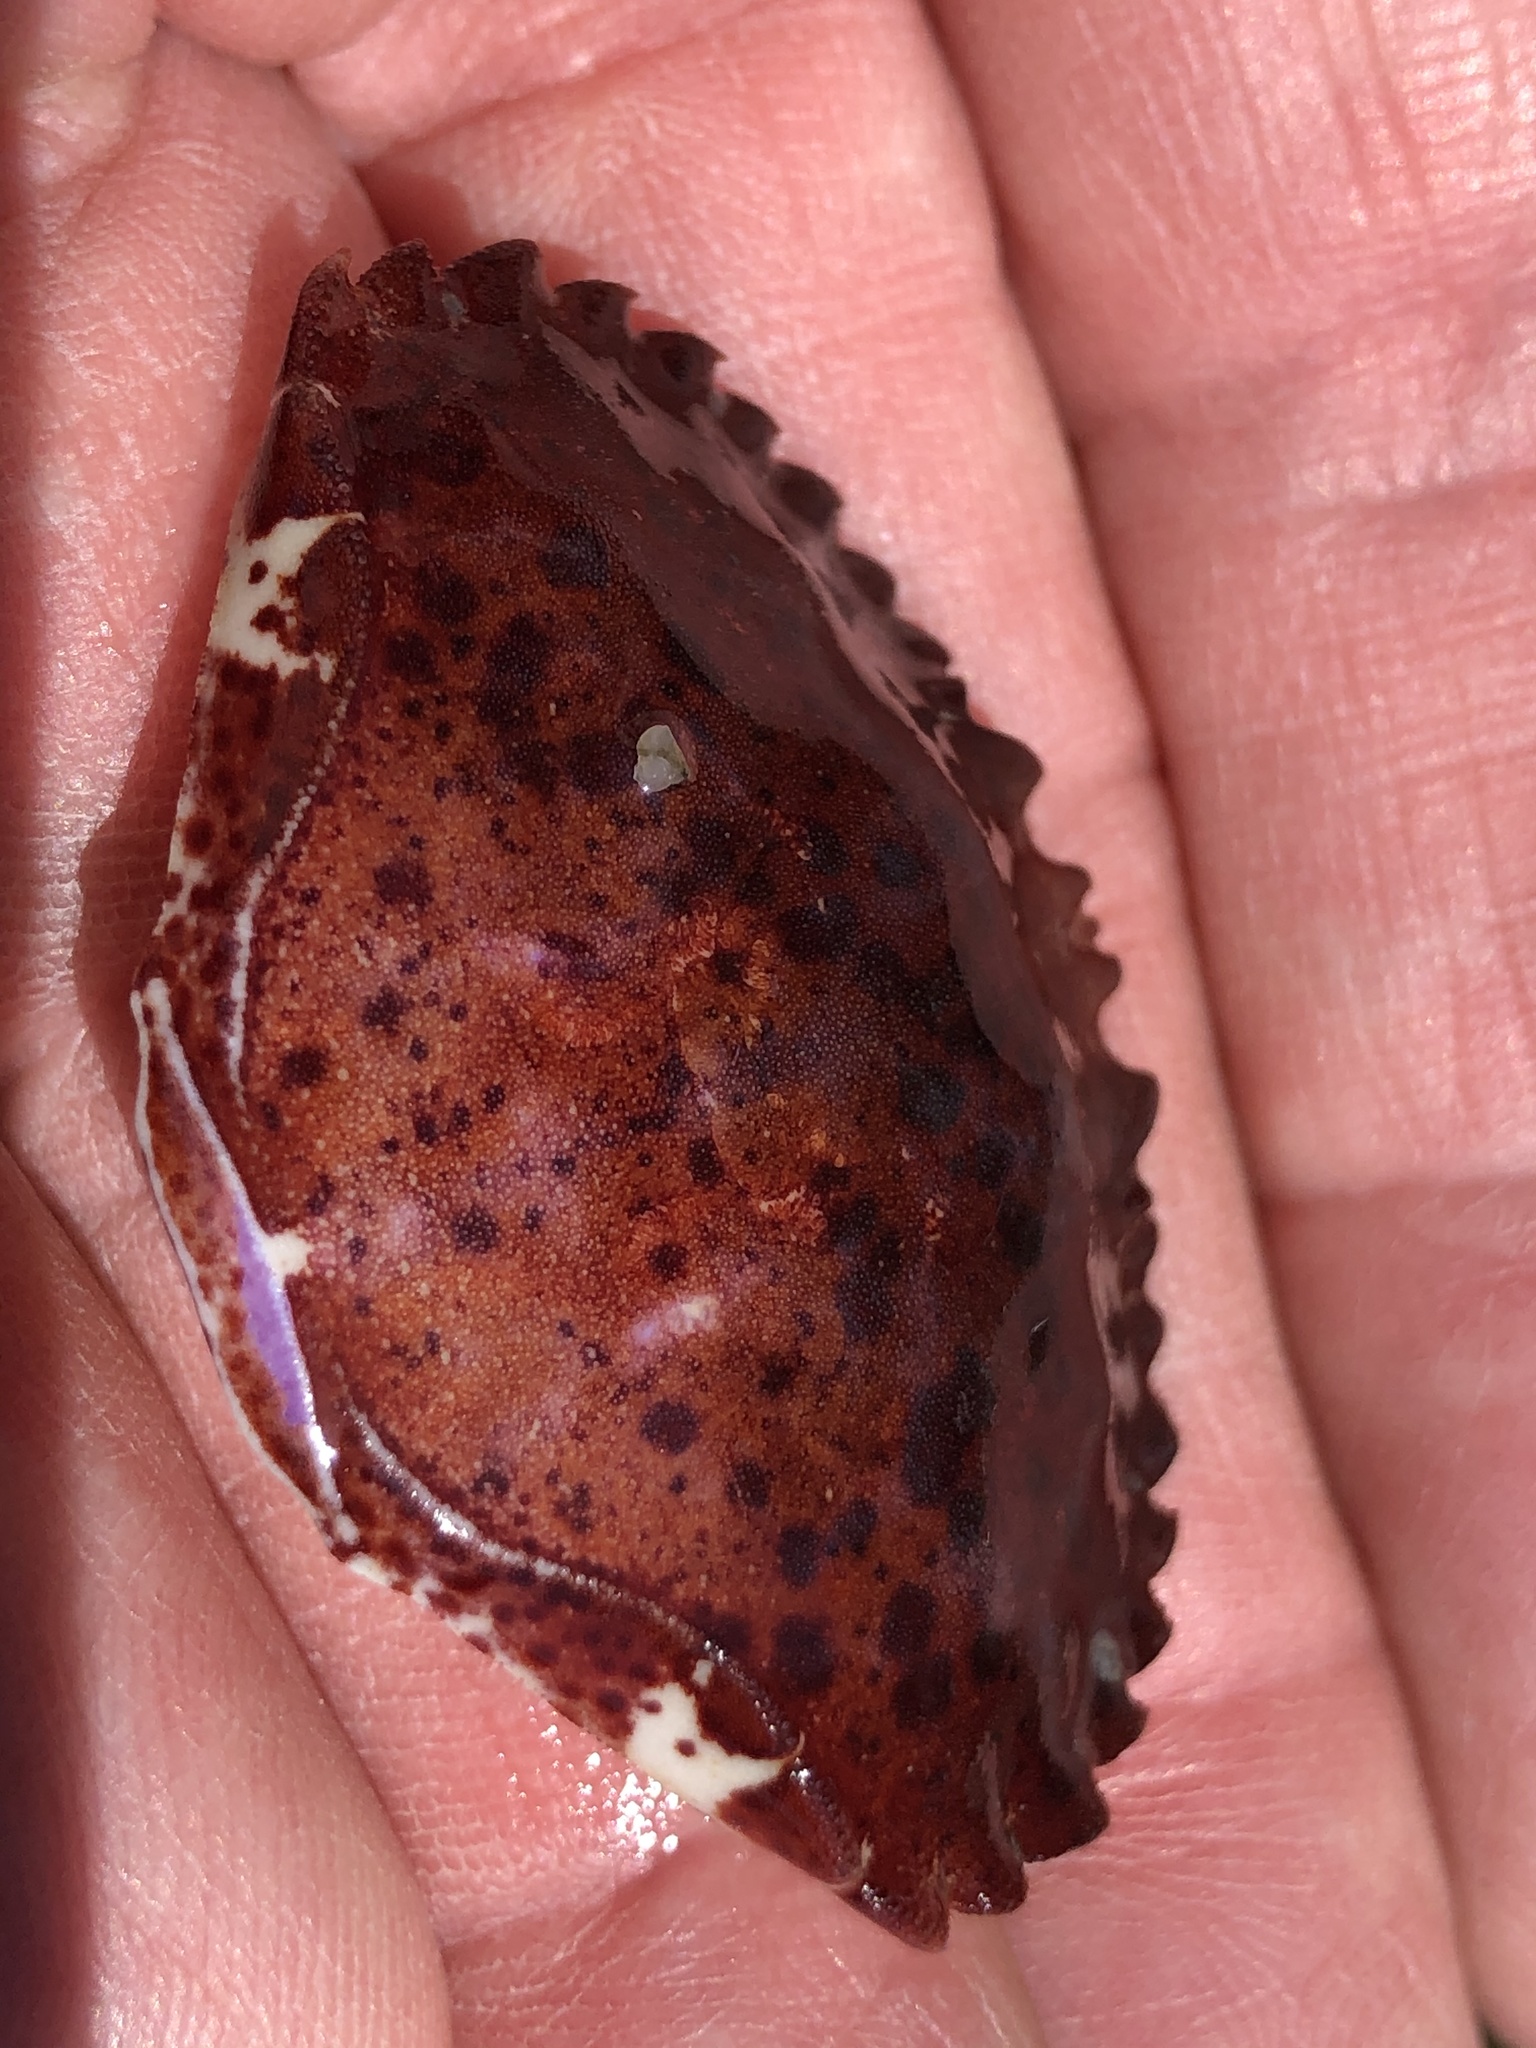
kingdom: Animalia
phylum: Arthropoda
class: Malacostraca
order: Decapoda
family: Cancridae
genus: Romaleon
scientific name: Romaleon antennarium
